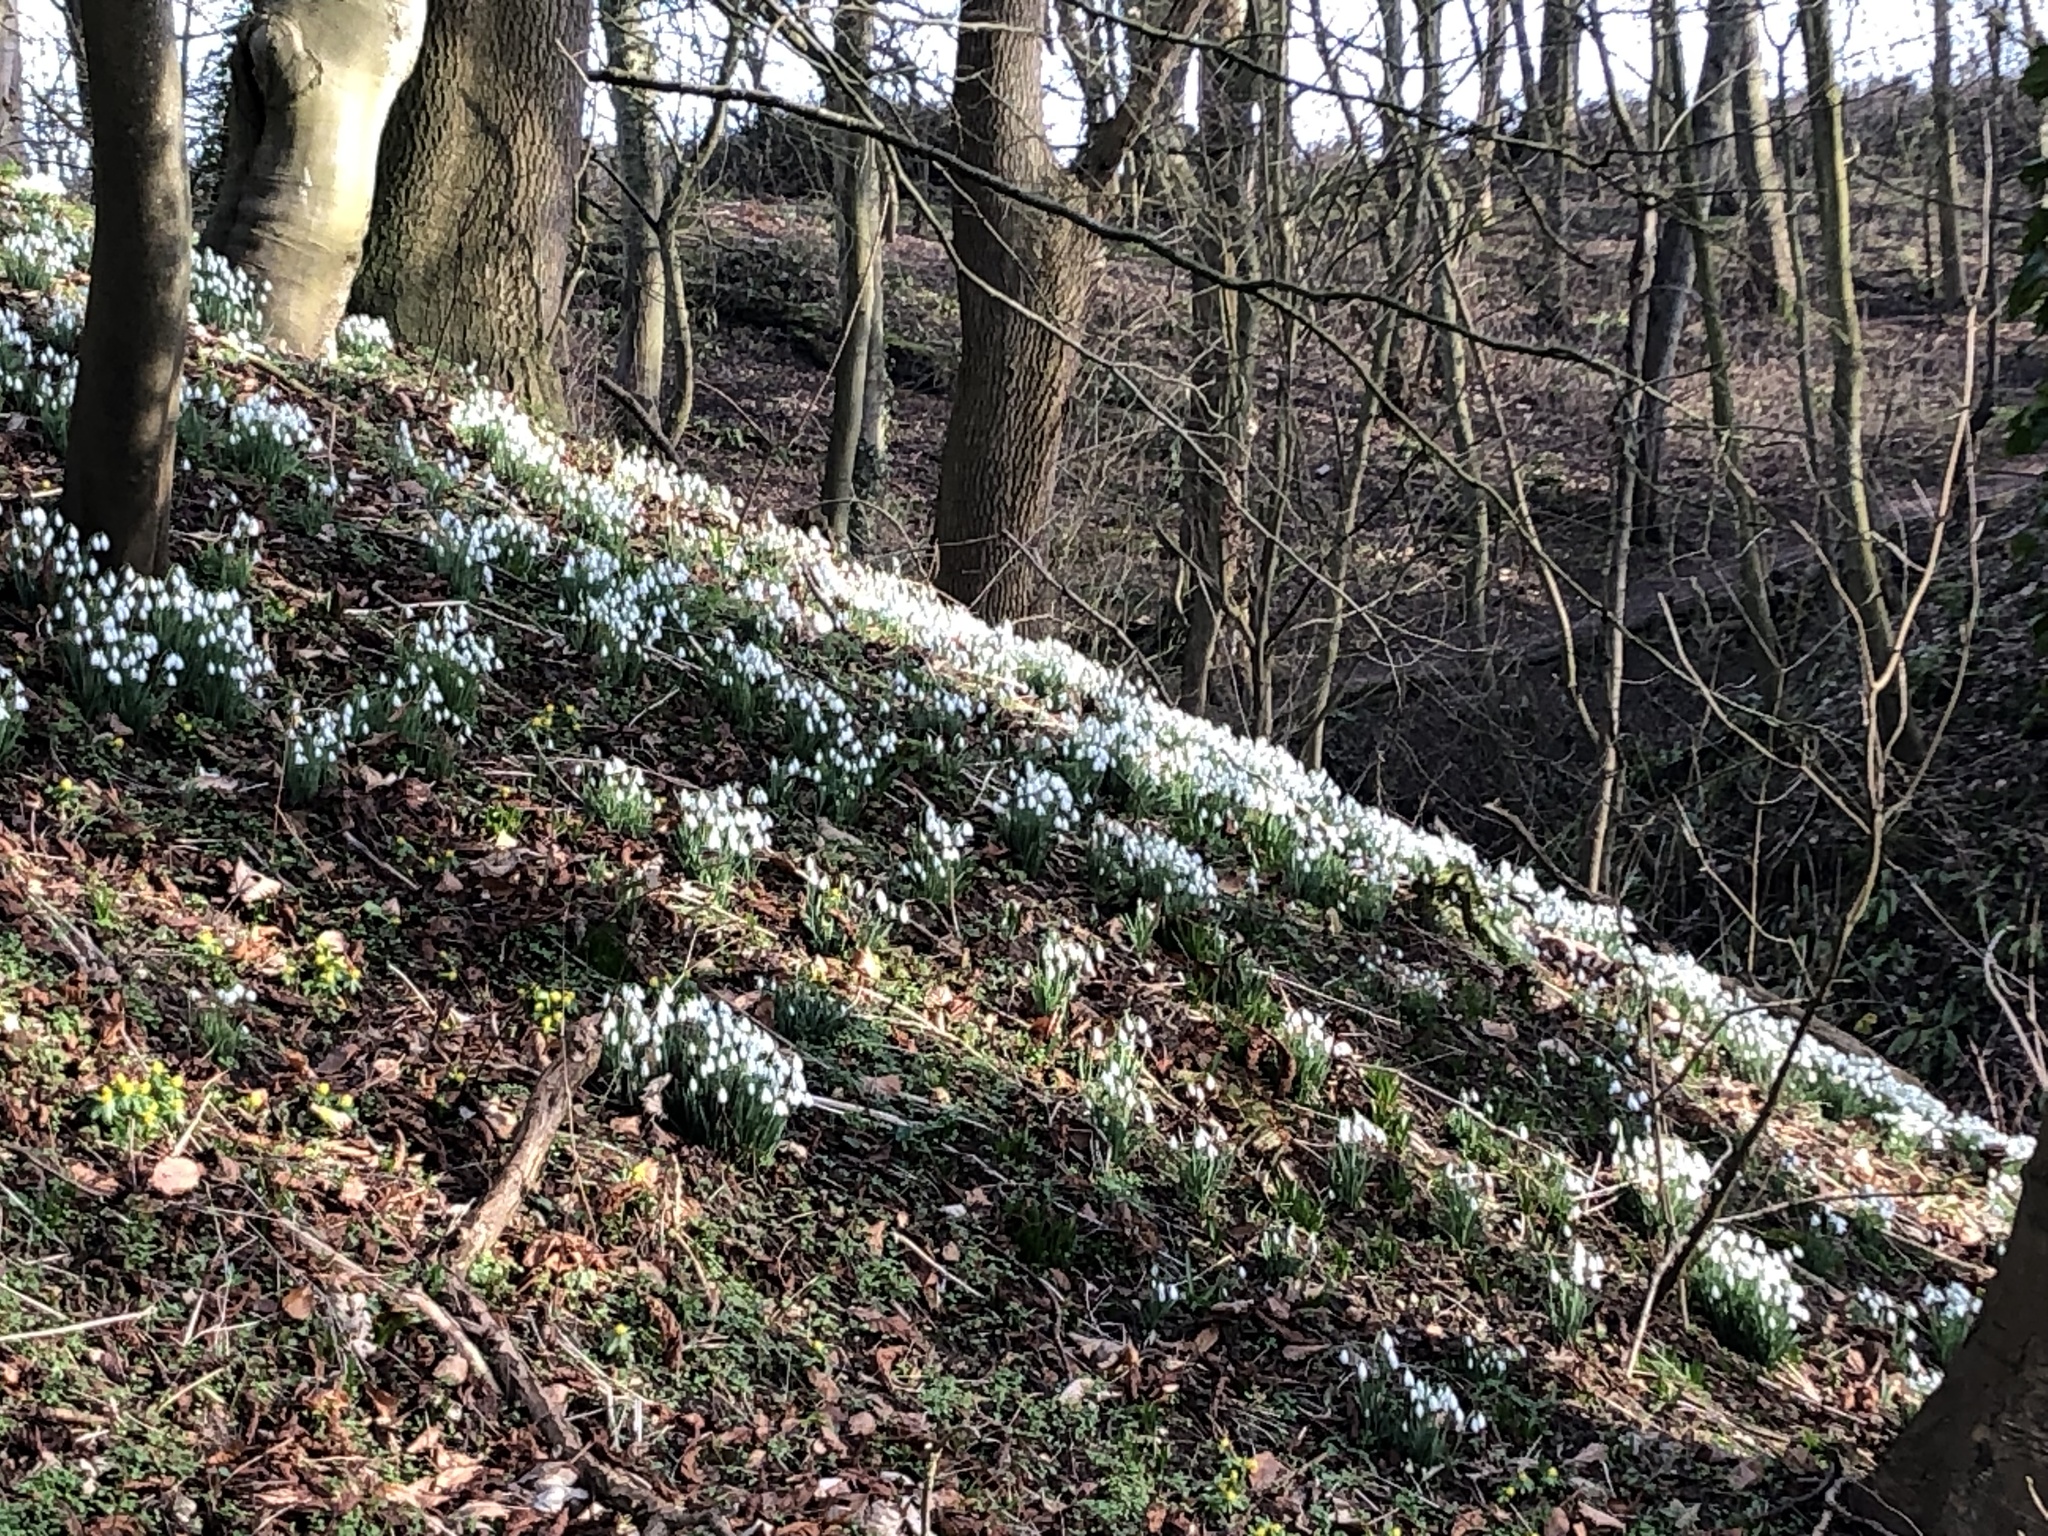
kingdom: Plantae
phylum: Tracheophyta
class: Liliopsida
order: Asparagales
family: Amaryllidaceae
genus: Galanthus
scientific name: Galanthus nivalis
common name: Snowdrop
